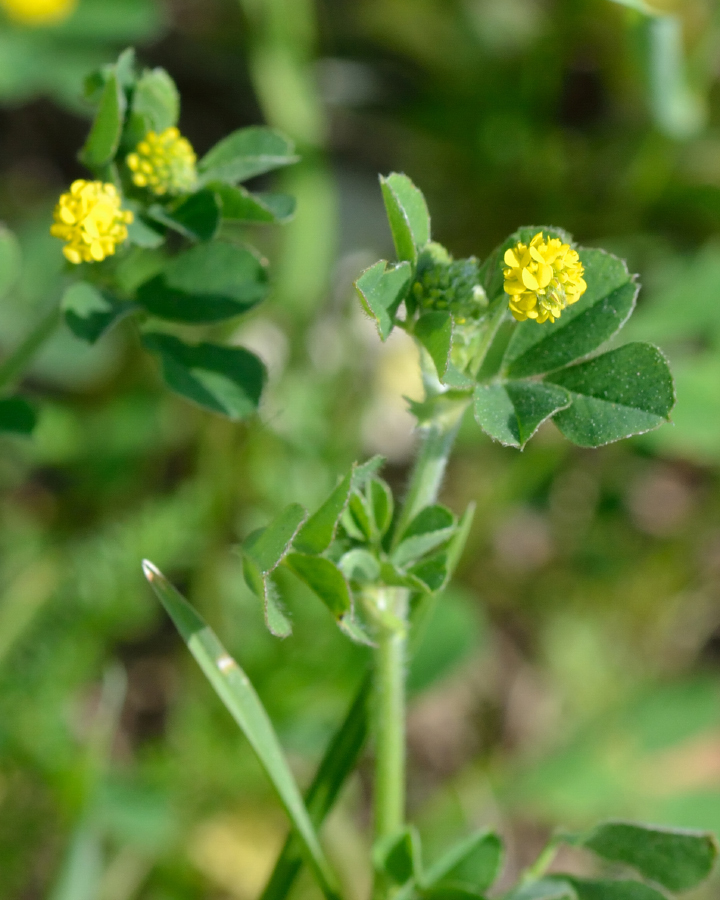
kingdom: Plantae
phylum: Tracheophyta
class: Magnoliopsida
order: Fabales
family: Fabaceae
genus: Medicago
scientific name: Medicago lupulina
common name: Black medick
